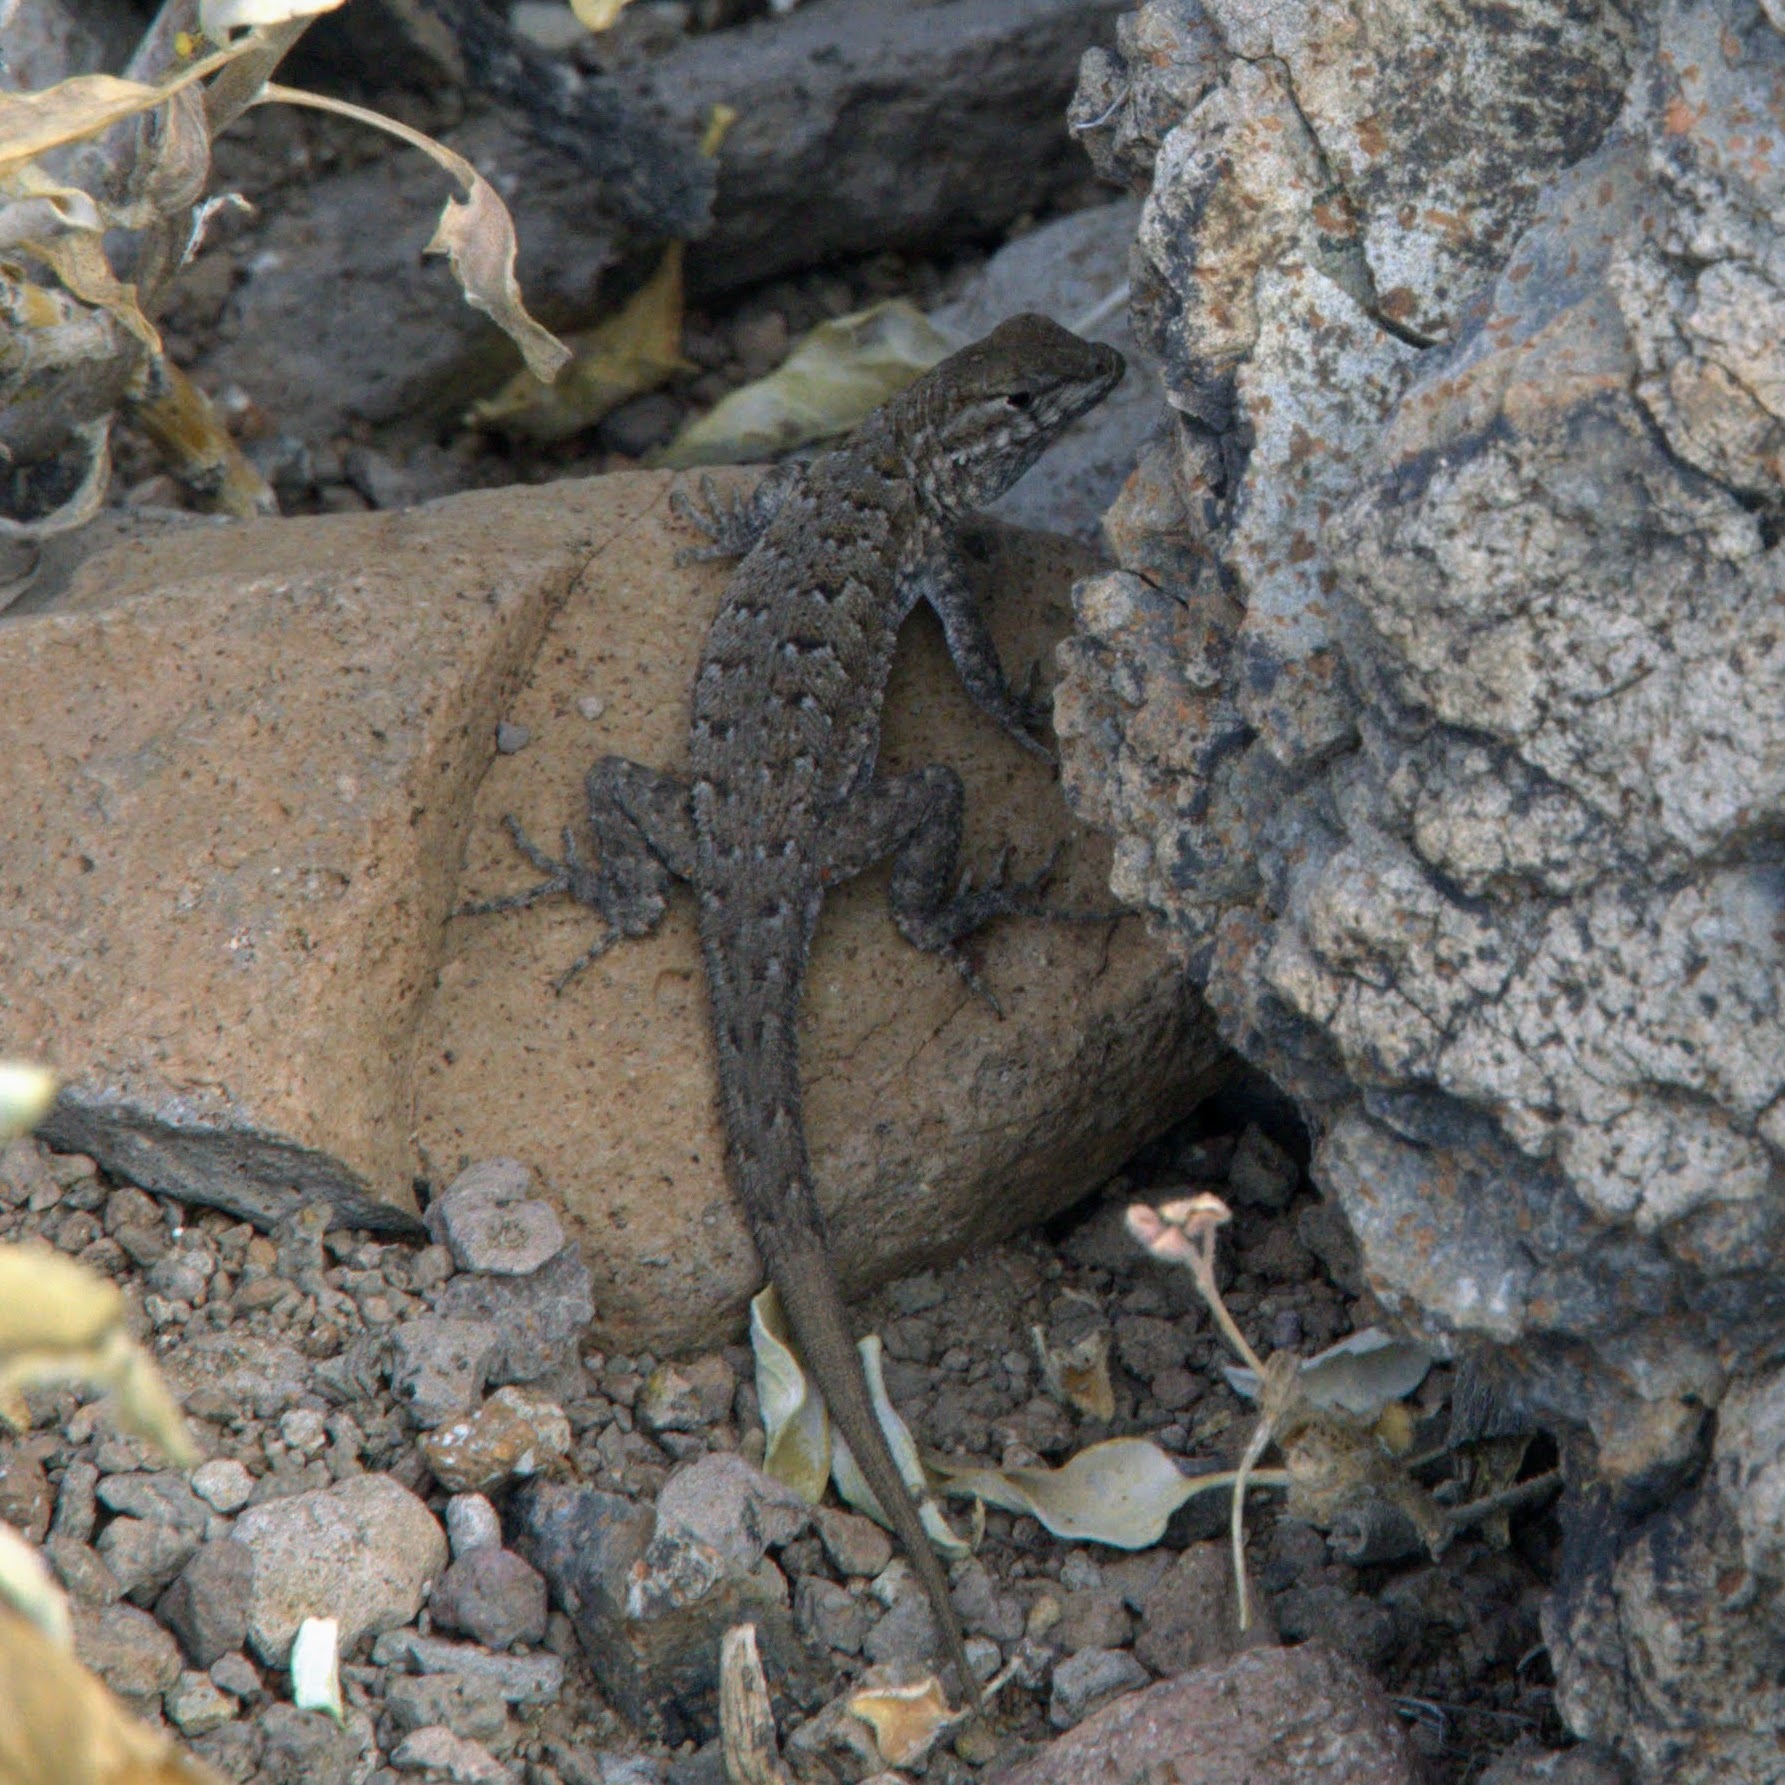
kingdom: Animalia
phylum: Chordata
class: Squamata
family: Phrynosomatidae
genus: Uta
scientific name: Uta stansburiana
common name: Side-blotched lizard
